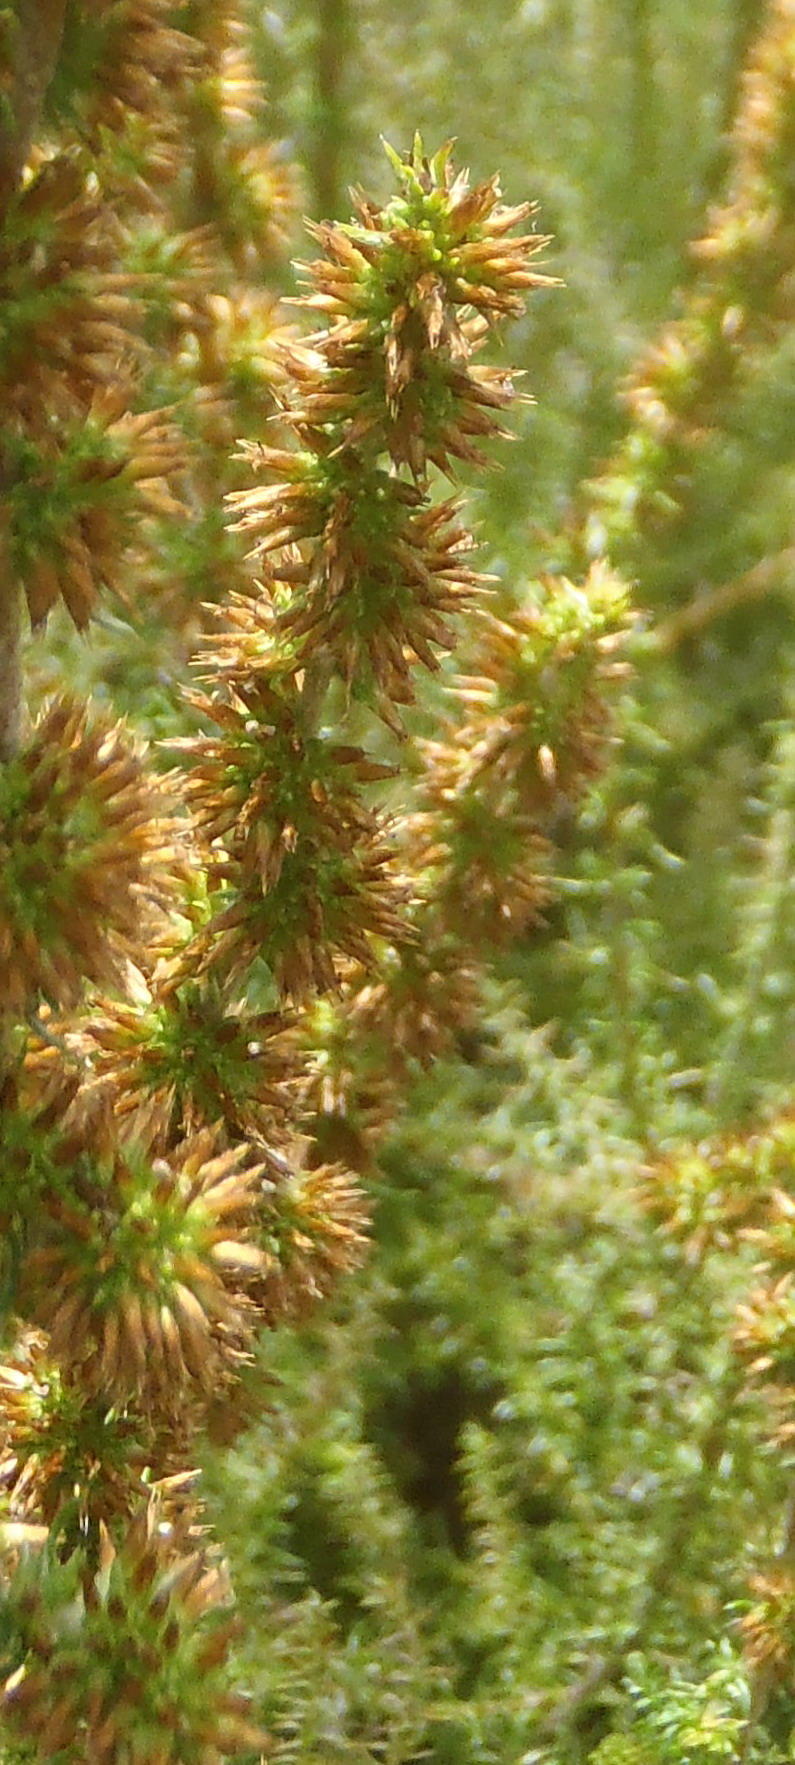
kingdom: Plantae
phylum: Tracheophyta
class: Magnoliopsida
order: Asterales
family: Asteraceae
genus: Seriphium
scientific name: Seriphium cinereum
